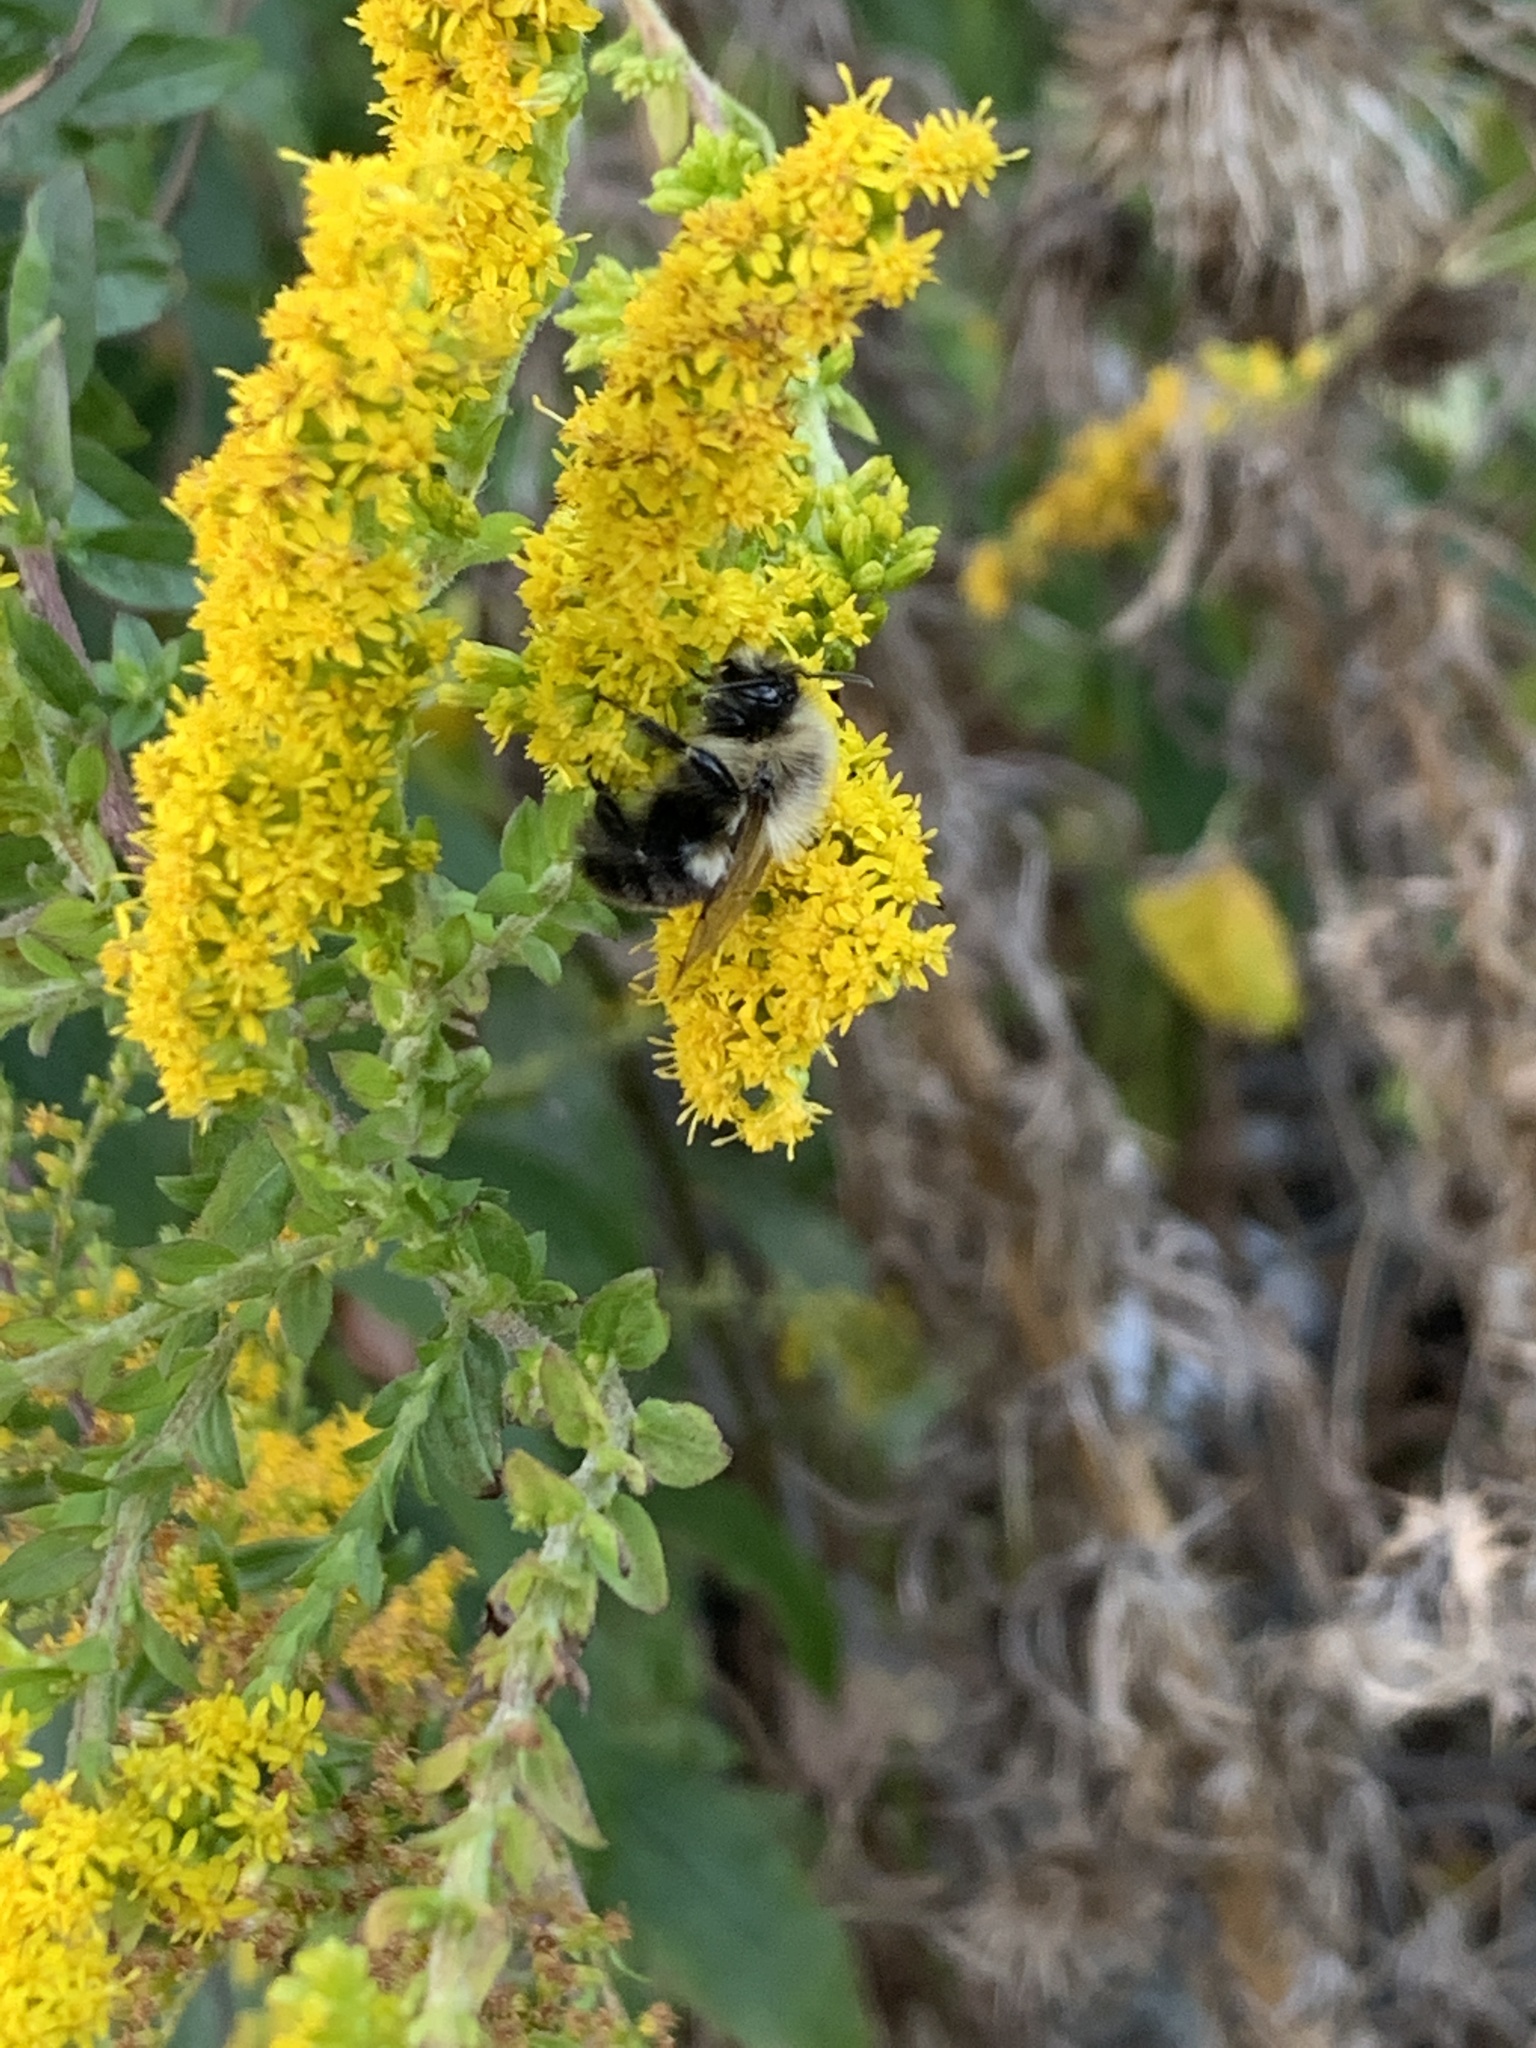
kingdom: Animalia
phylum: Arthropoda
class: Insecta
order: Hymenoptera
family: Apidae
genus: Bombus
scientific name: Bombus impatiens
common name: Common eastern bumble bee
